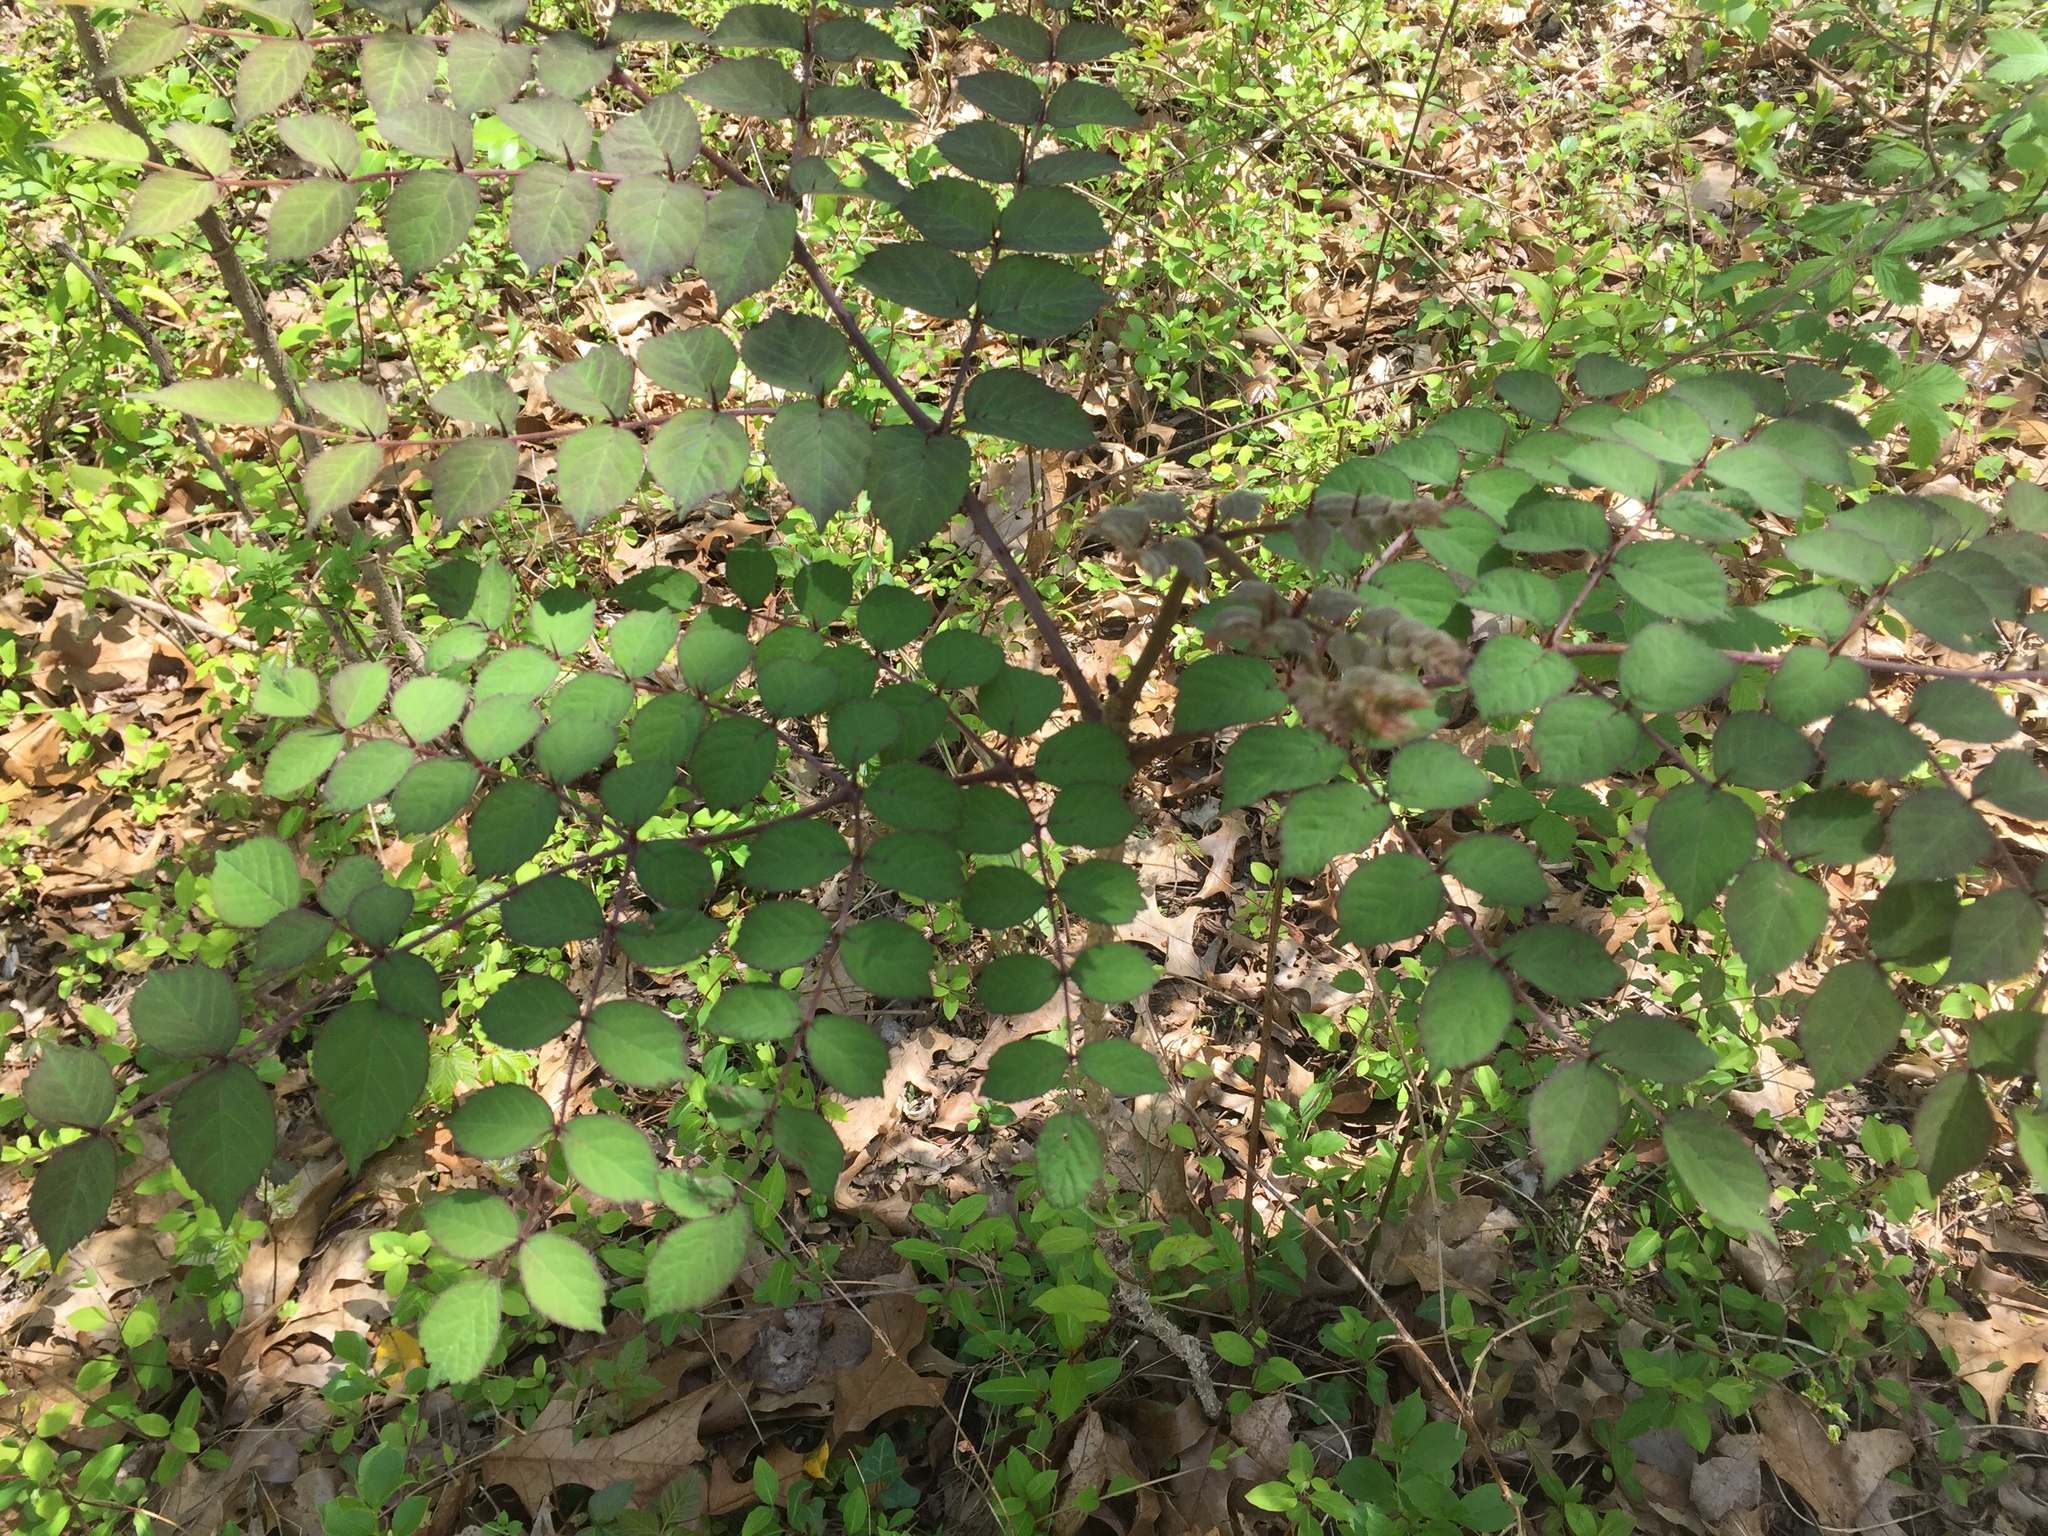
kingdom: Plantae
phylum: Tracheophyta
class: Magnoliopsida
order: Apiales
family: Araliaceae
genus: Aralia
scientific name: Aralia elata
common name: Japanese angelica-tree
